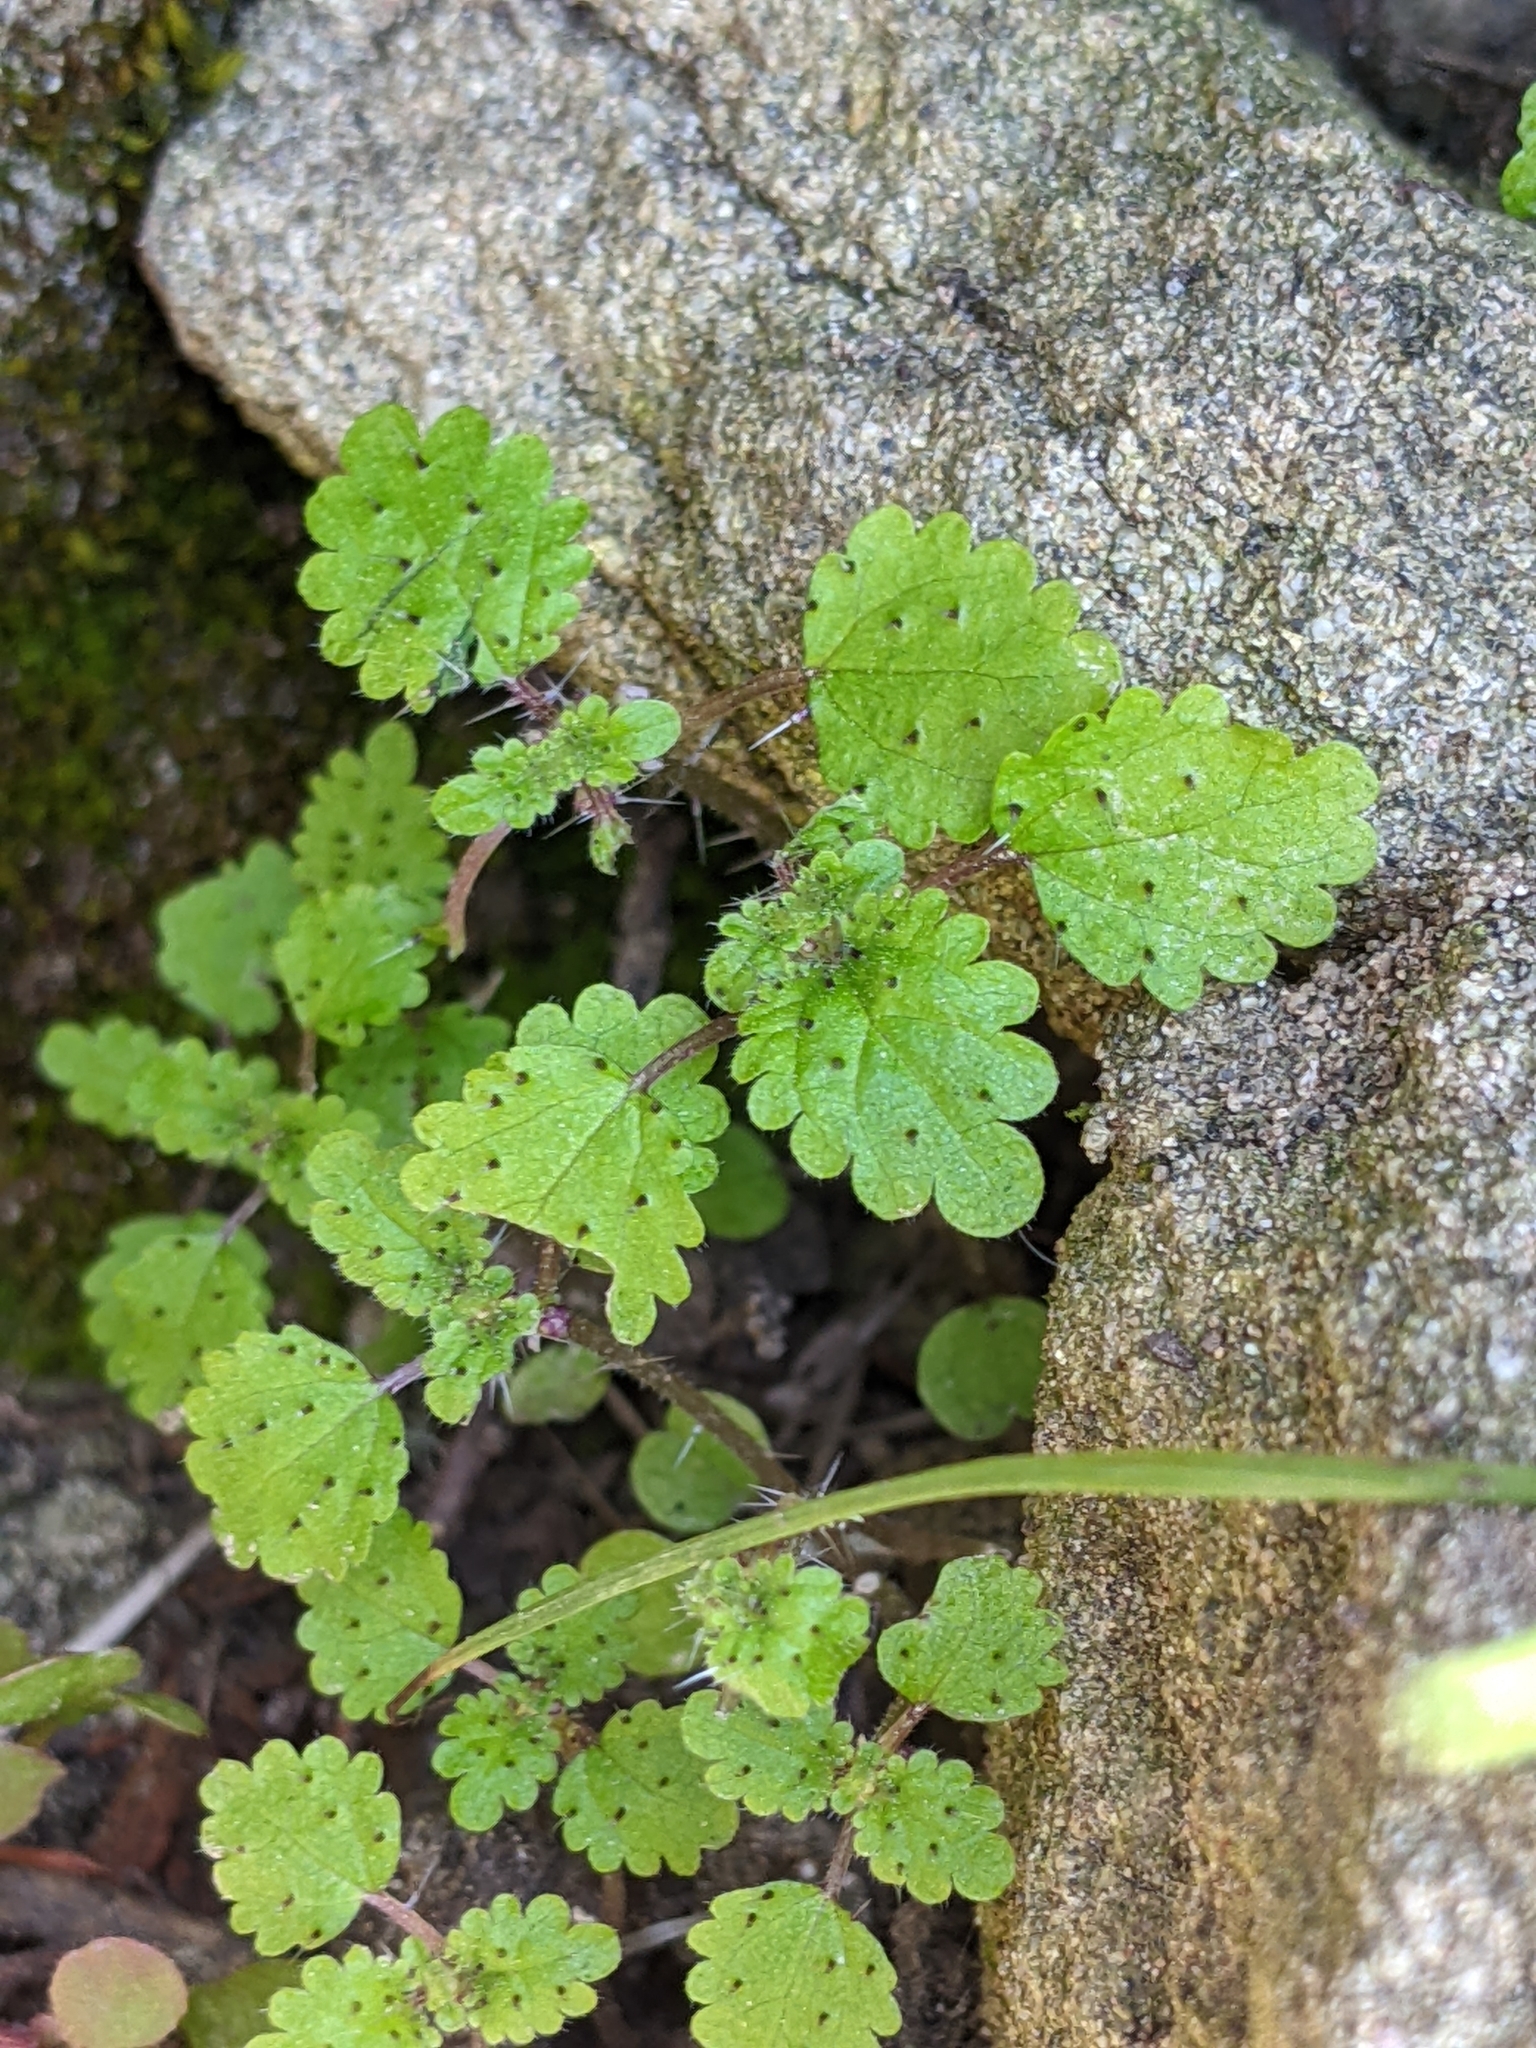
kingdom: Plantae
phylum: Tracheophyta
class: Magnoliopsida
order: Rosales
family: Urticaceae
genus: Hesperocnide
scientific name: Hesperocnide tenella
